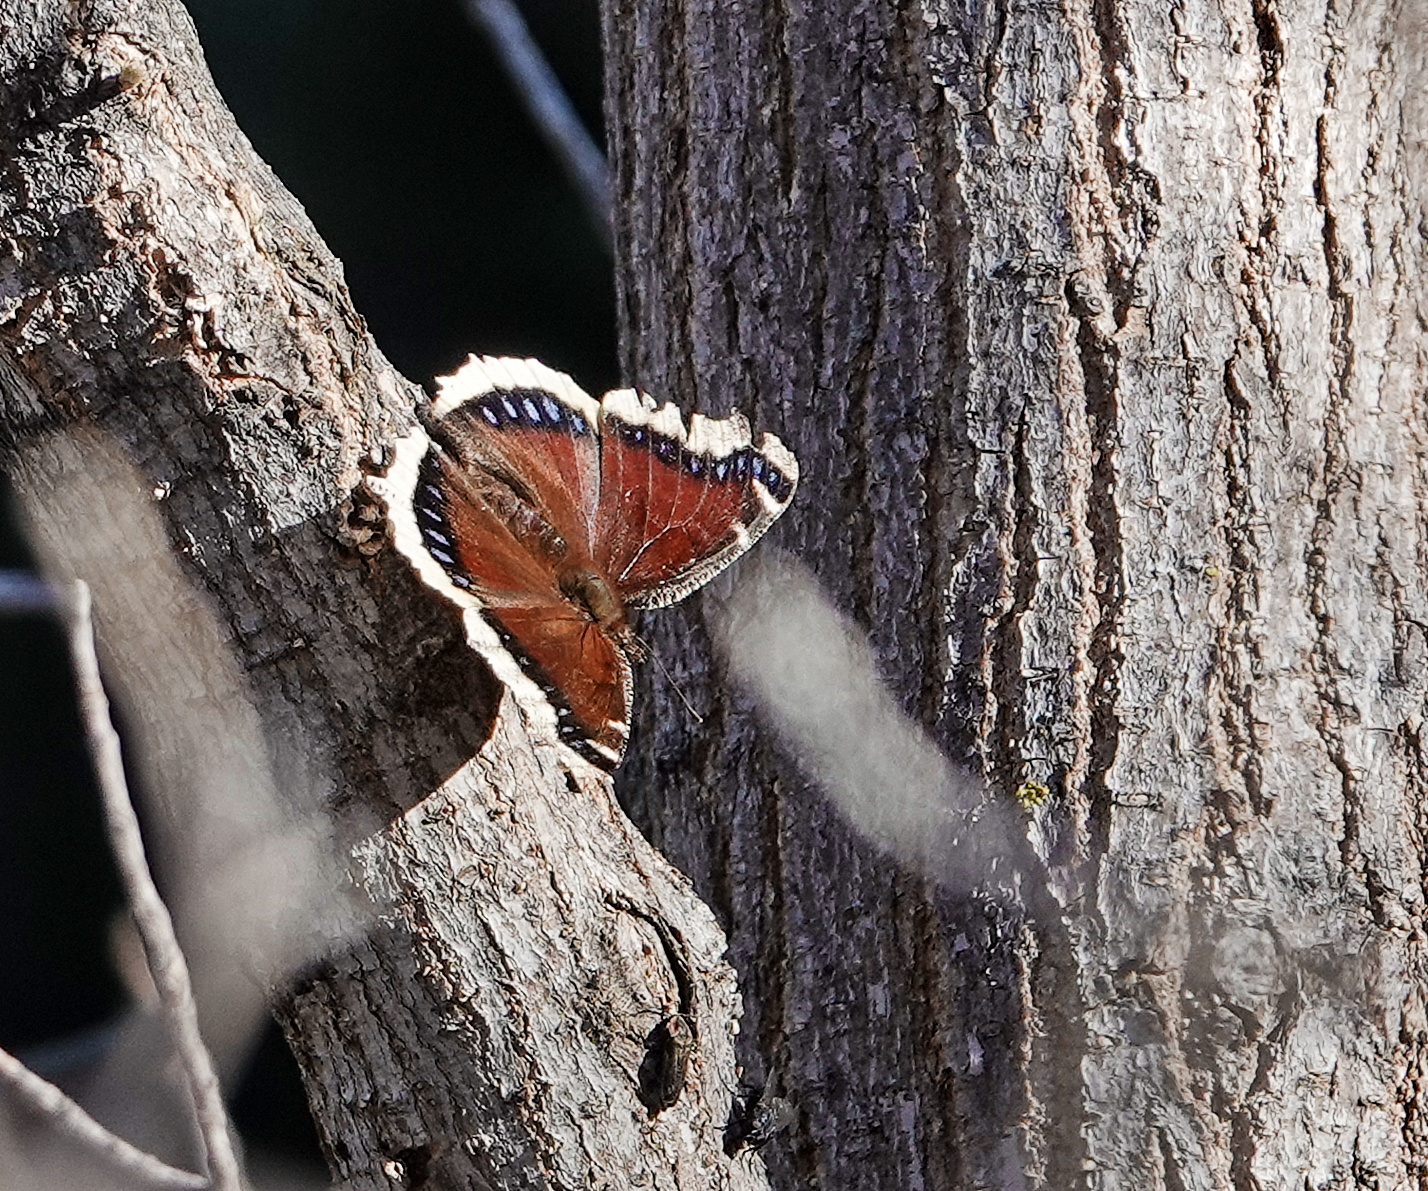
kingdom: Animalia
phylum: Arthropoda
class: Insecta
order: Lepidoptera
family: Nymphalidae
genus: Nymphalis
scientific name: Nymphalis antiopa
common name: Camberwell beauty
